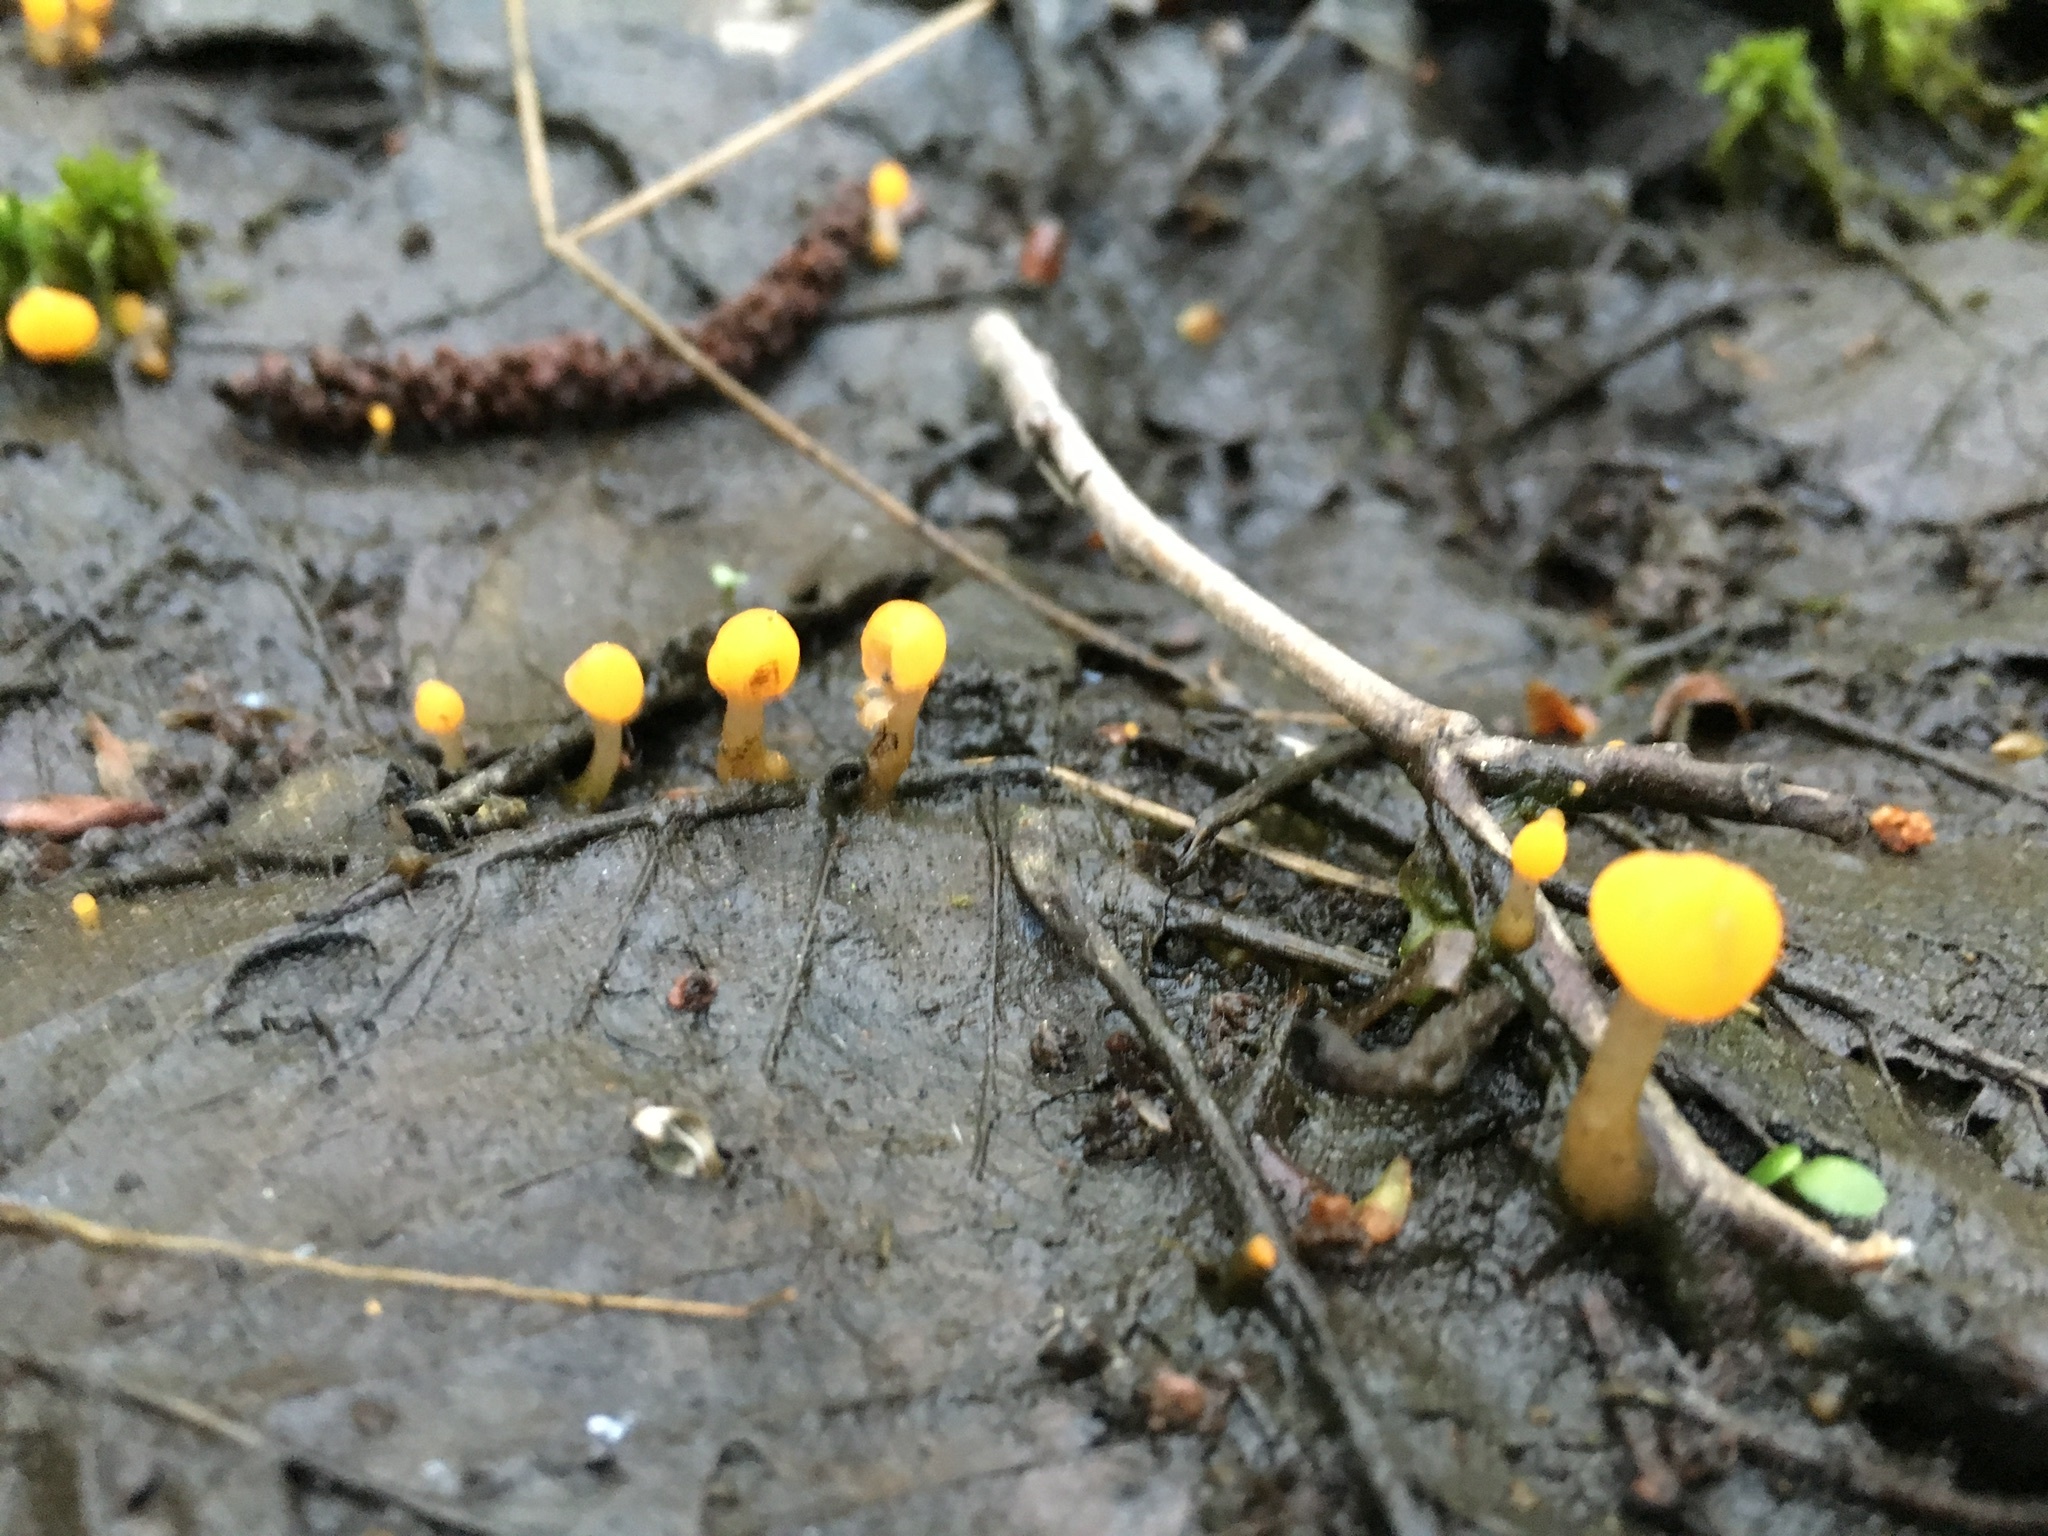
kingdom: Fungi
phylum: Ascomycota
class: Leotiomycetes
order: Helotiales
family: Cenangiaceae
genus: Mitrula
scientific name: Mitrula paludosa
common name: Bog beacon
